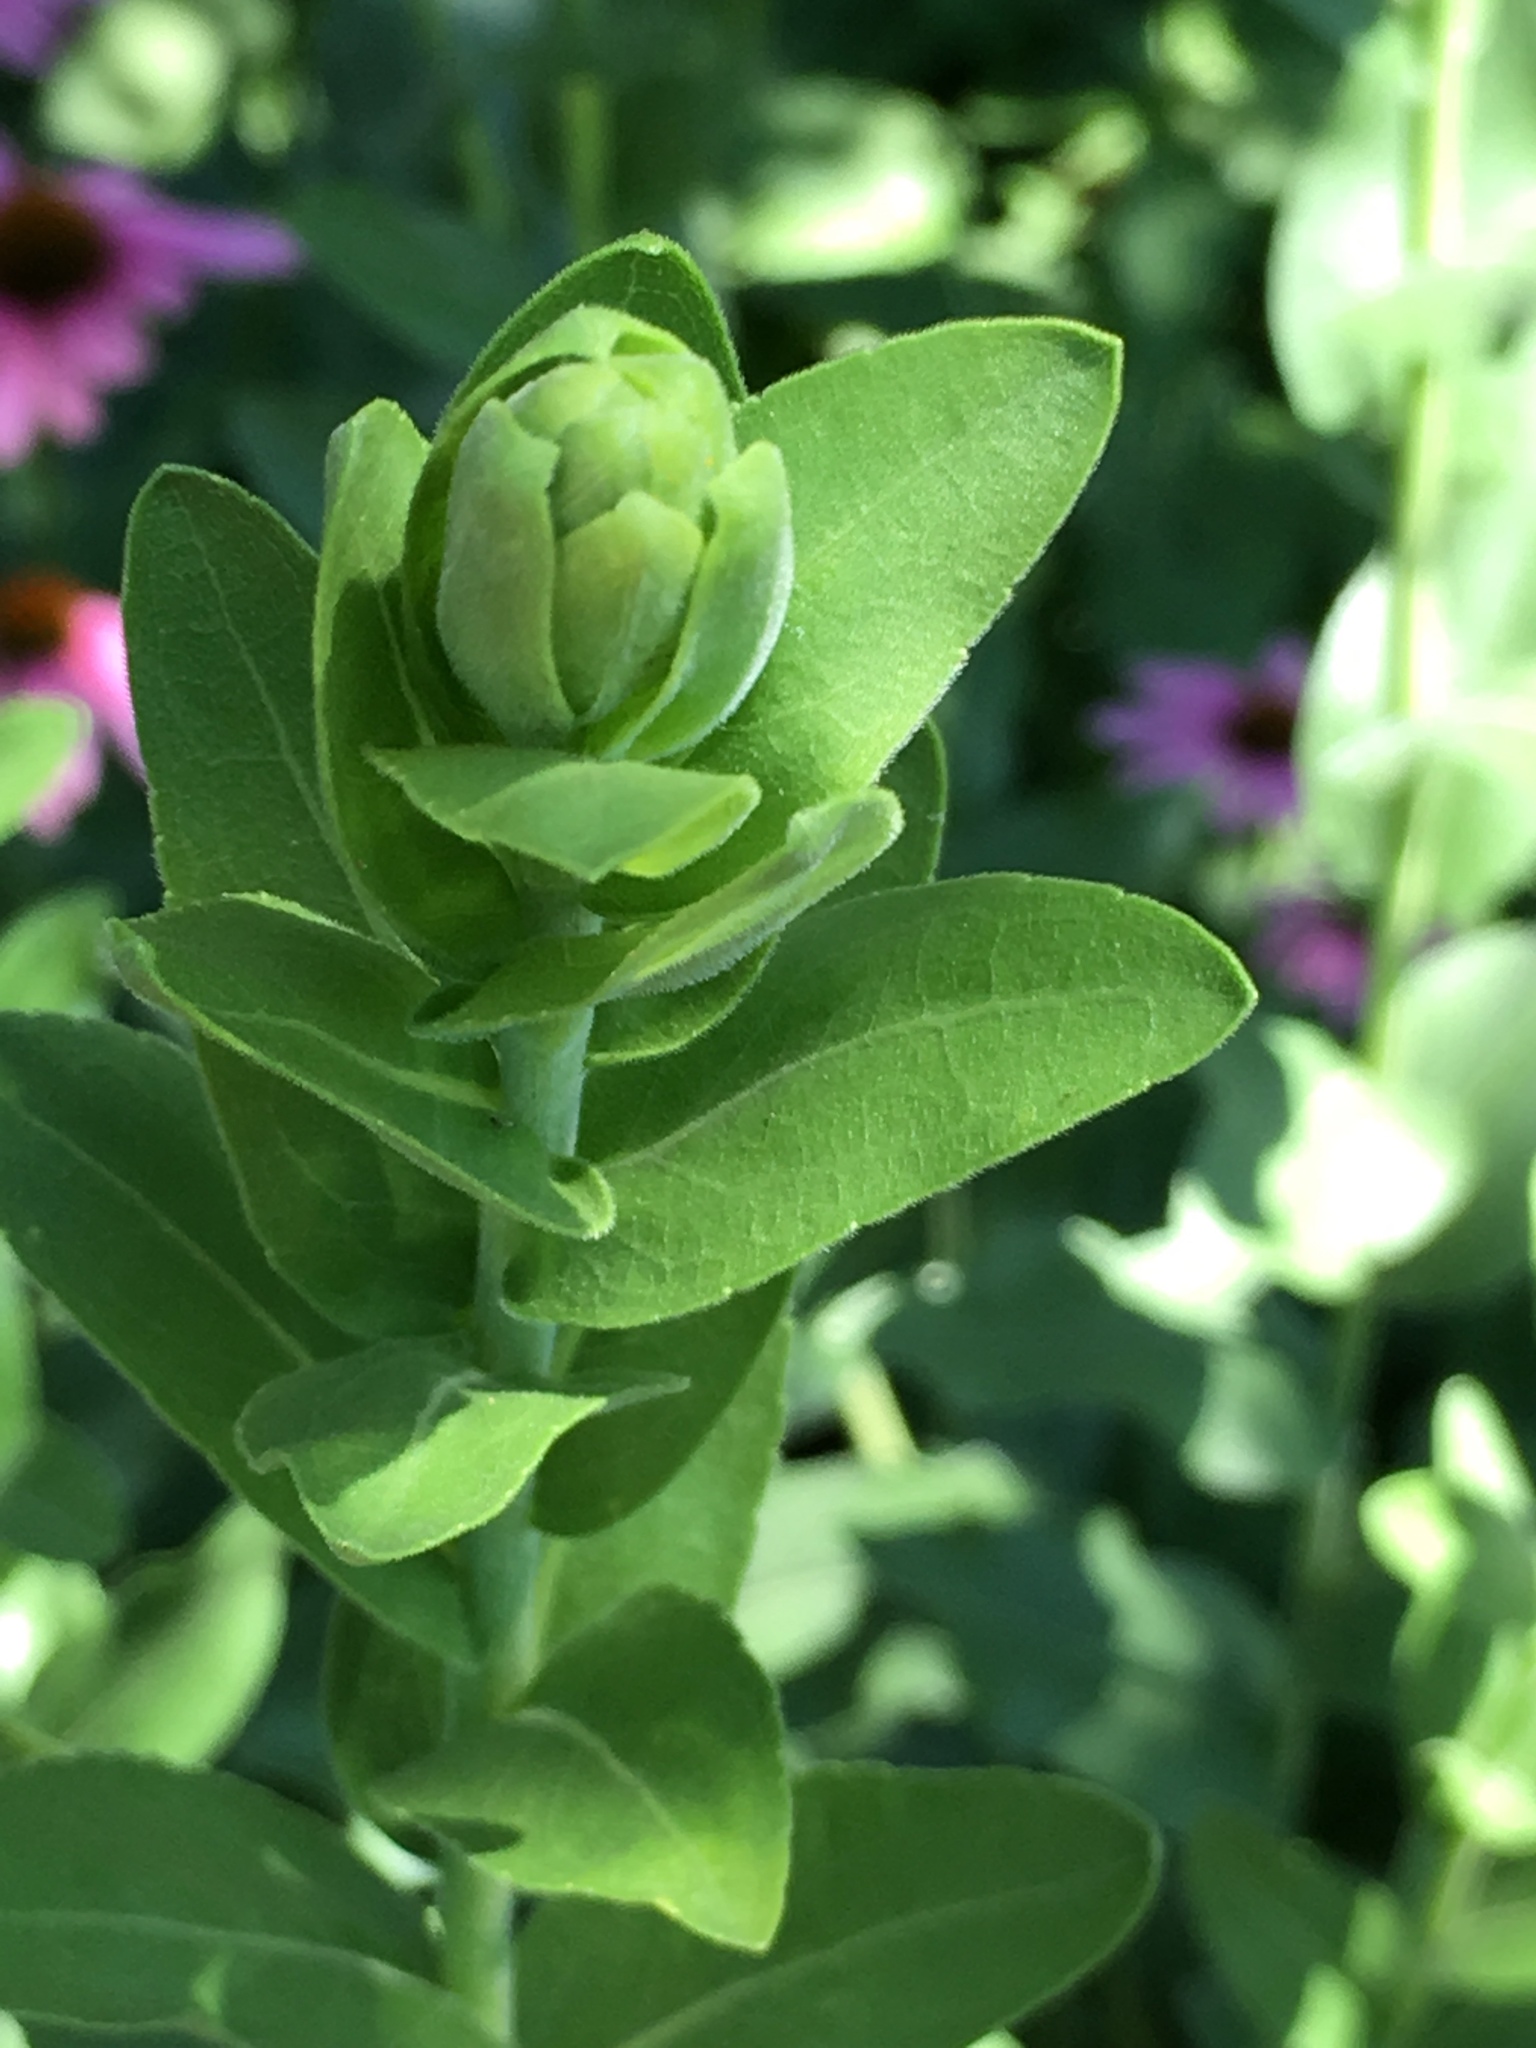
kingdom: Plantae
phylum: Tracheophyta
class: Magnoliopsida
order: Asterales
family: Asteraceae
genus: Solidago
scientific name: Solidago rigida
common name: Rigid goldenrod
